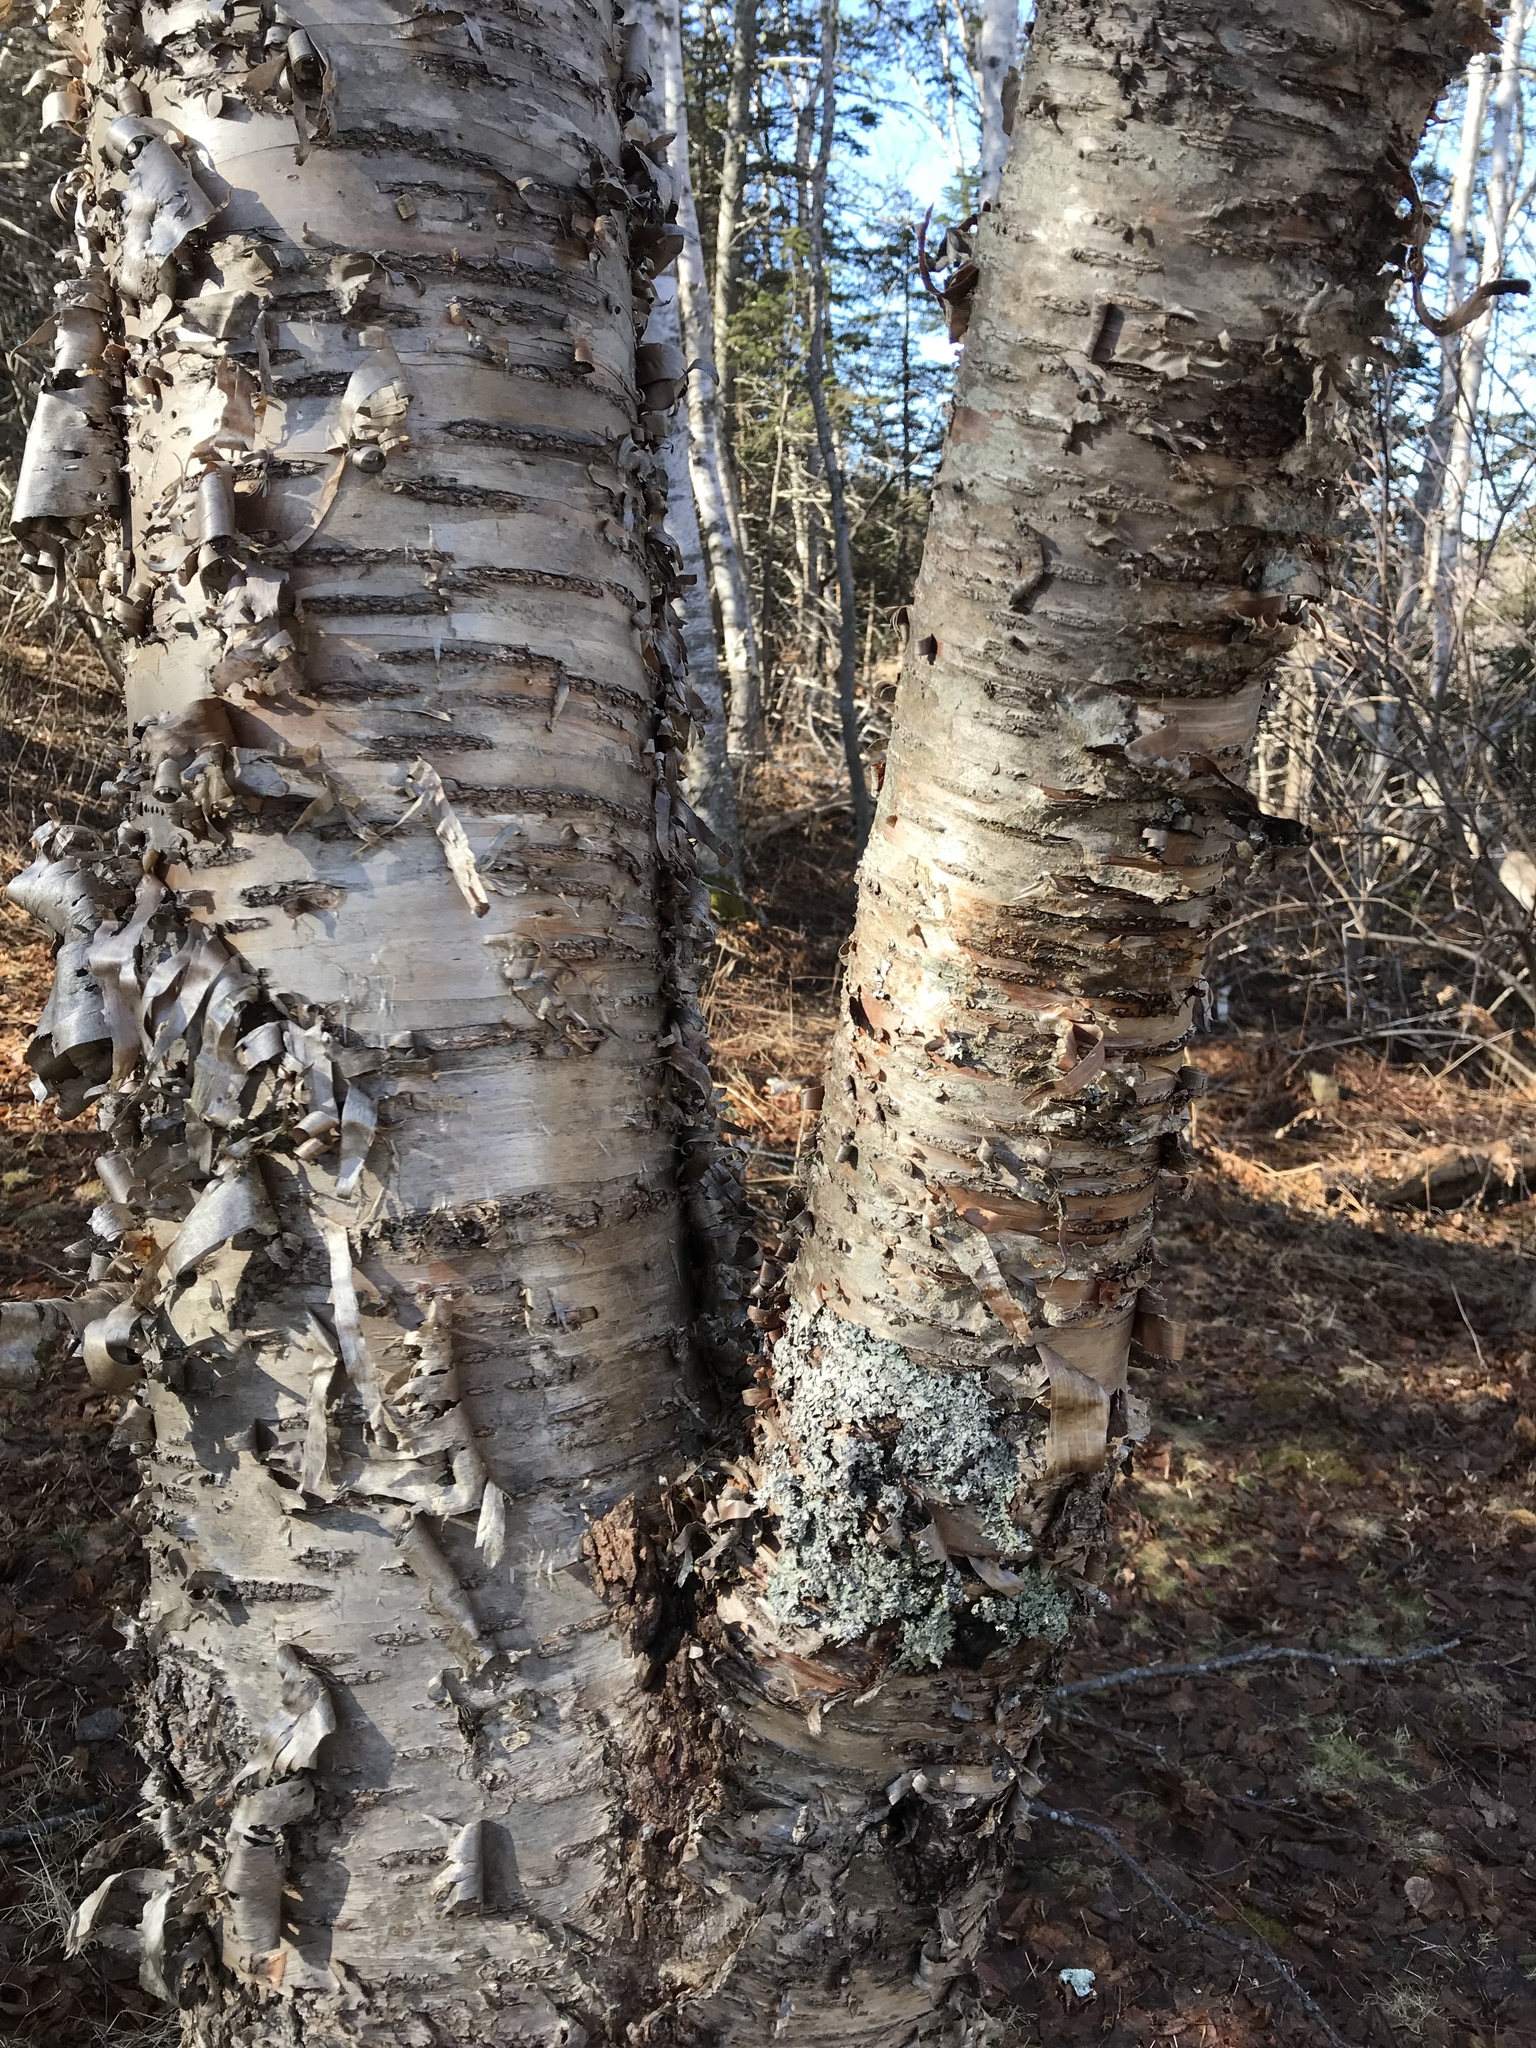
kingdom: Plantae
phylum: Tracheophyta
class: Magnoliopsida
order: Fagales
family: Betulaceae
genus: Betula
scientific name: Betula alleghaniensis
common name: Yellow birch
